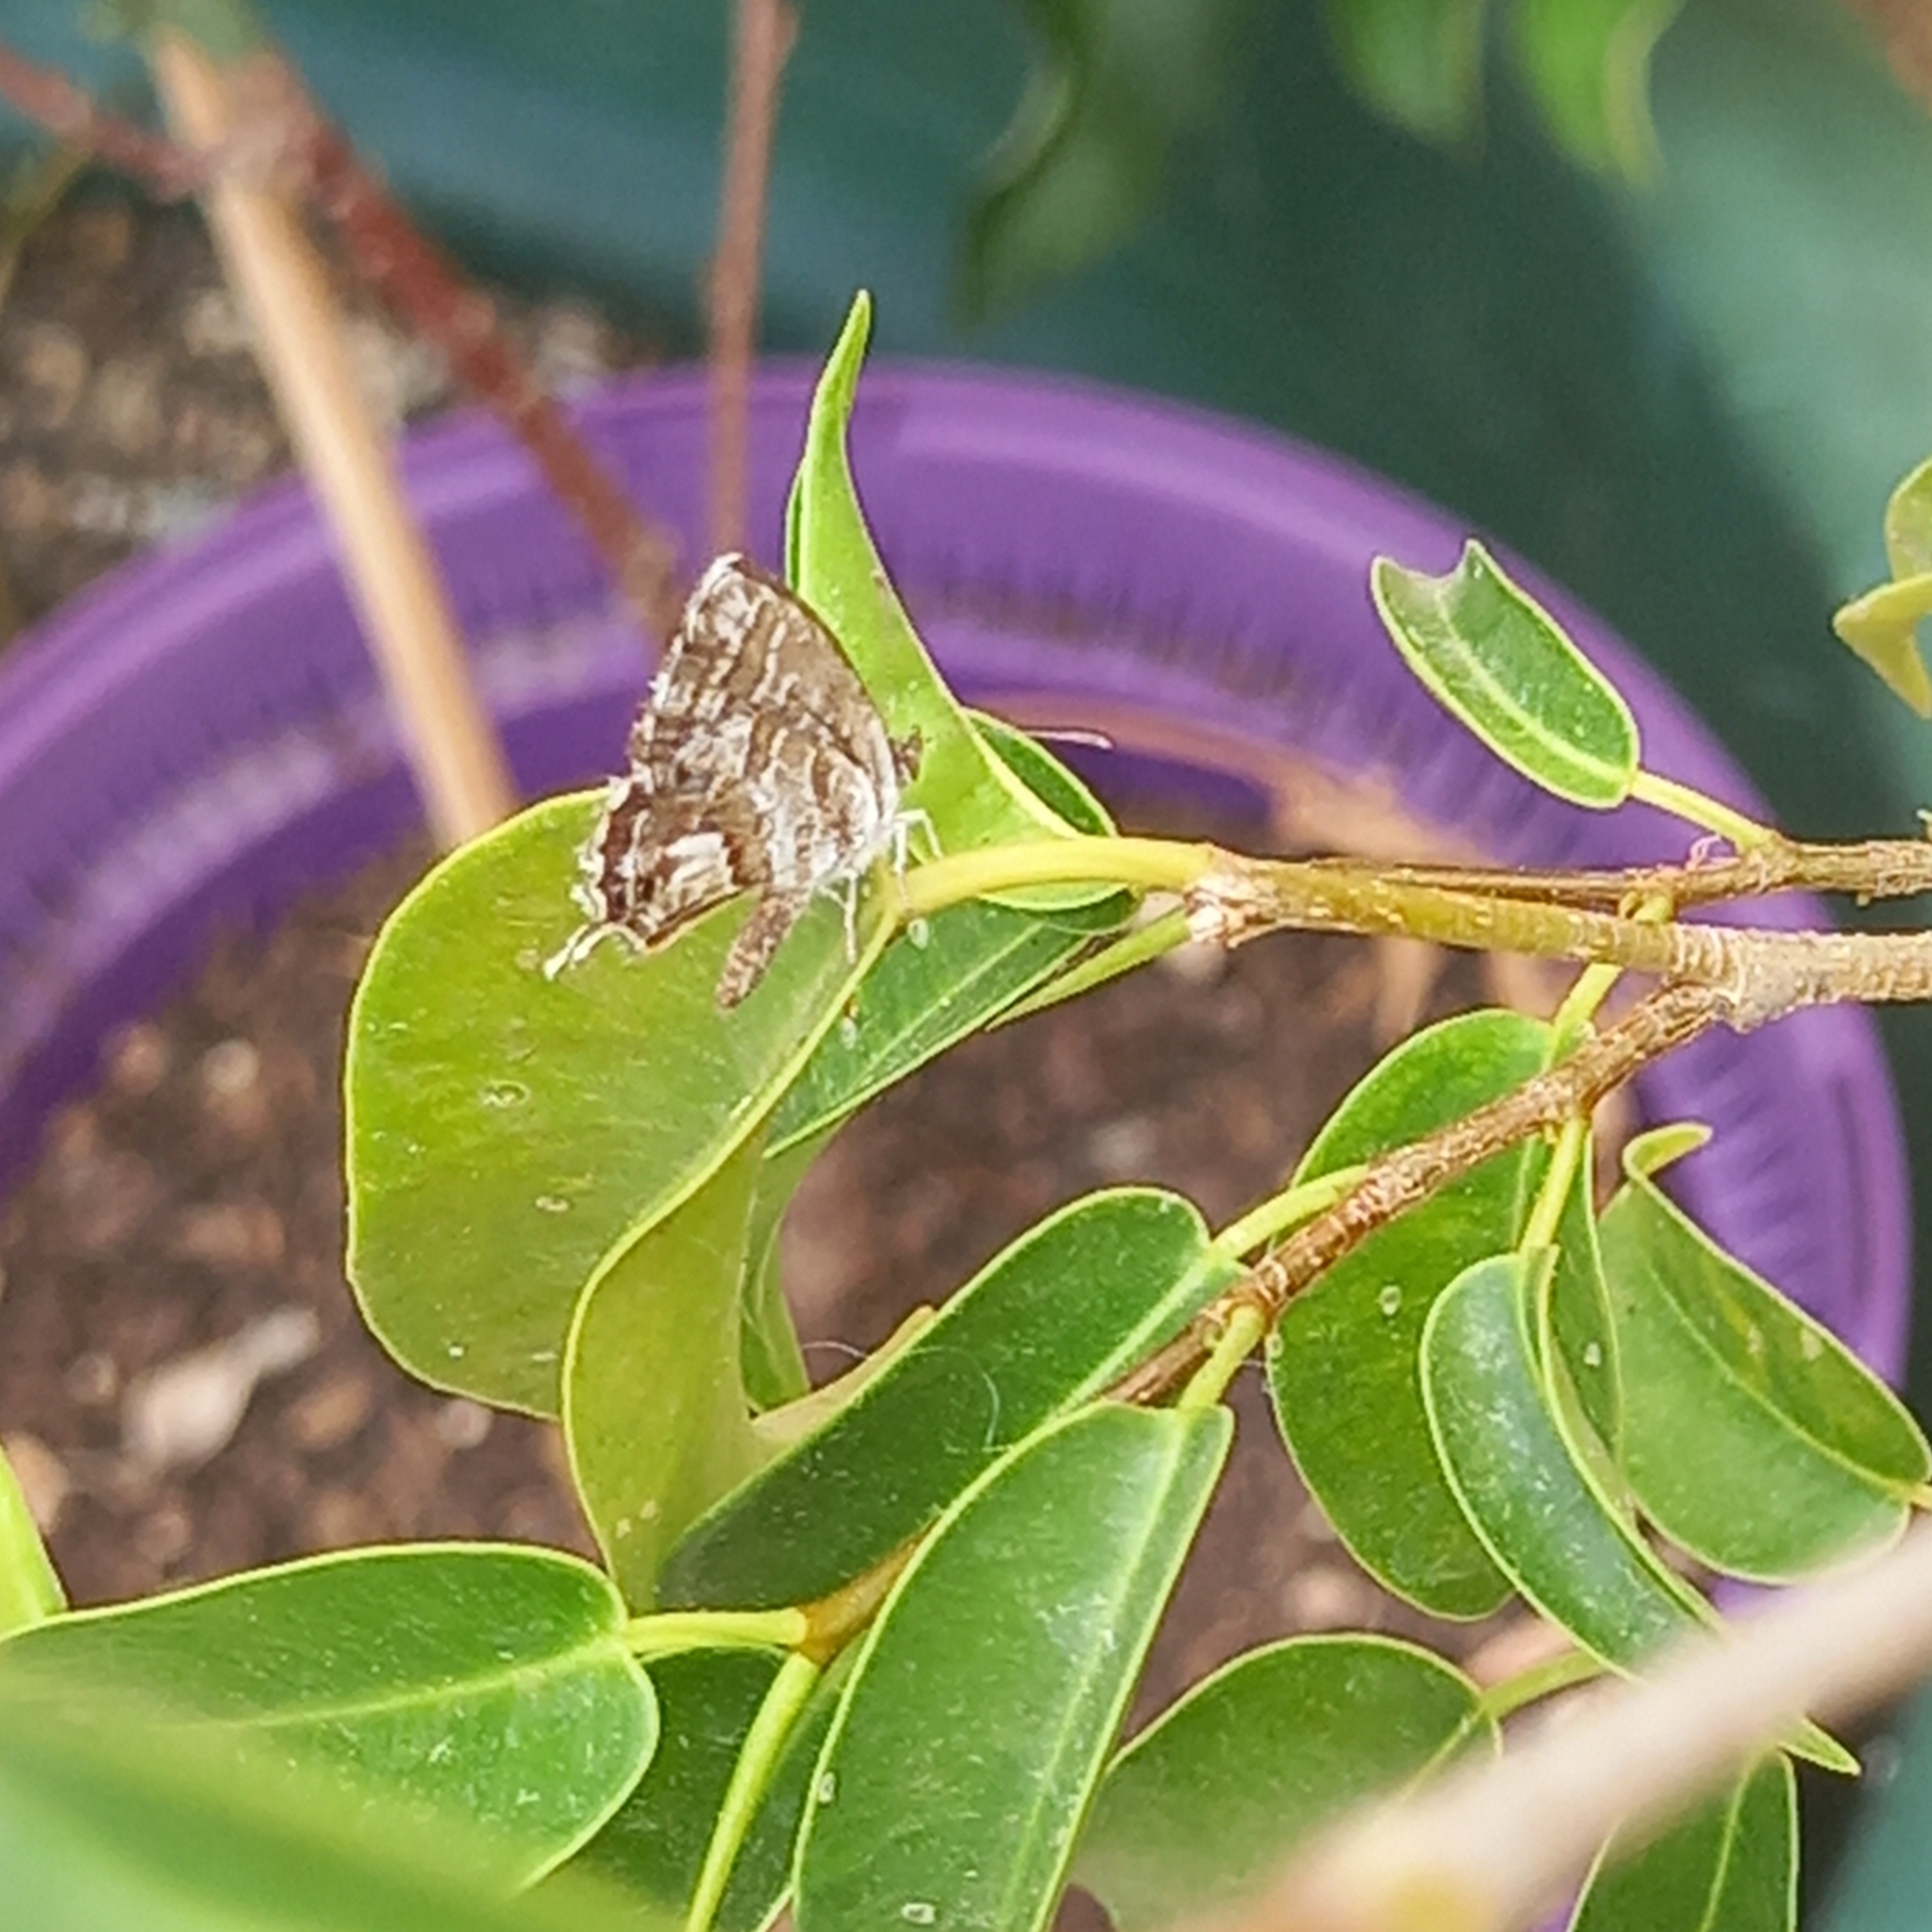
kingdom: Animalia
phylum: Arthropoda
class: Insecta
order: Lepidoptera
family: Lycaenidae
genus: Cacyreus
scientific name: Cacyreus marshalli
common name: Geranium bronze
